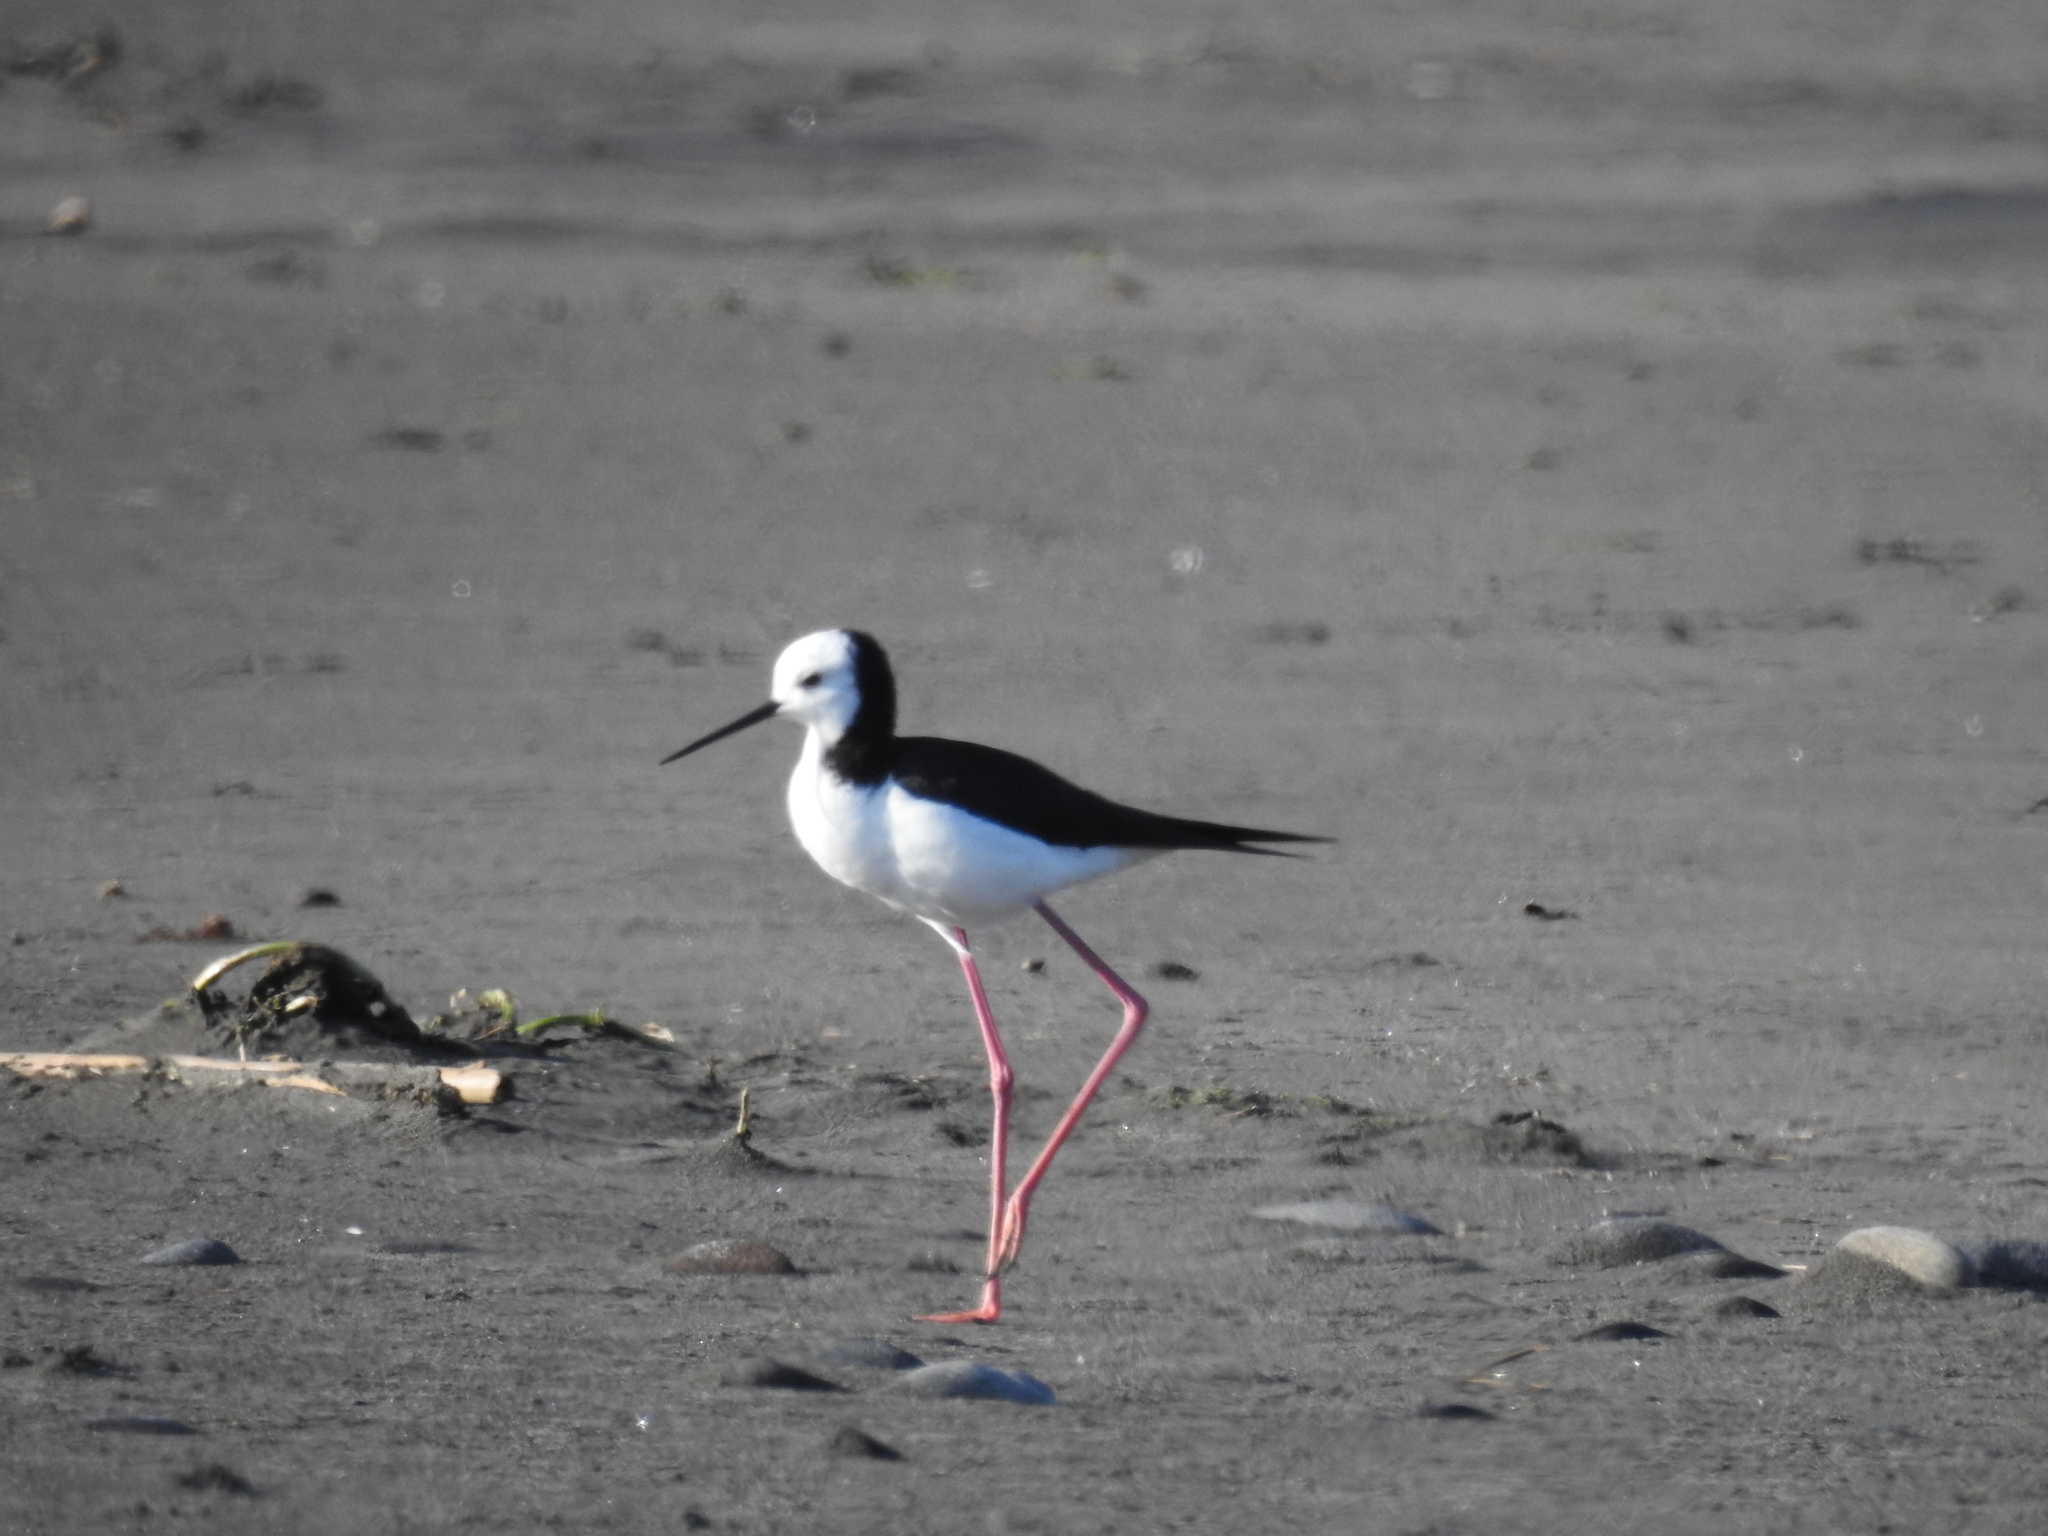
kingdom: Animalia
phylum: Chordata
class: Aves
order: Charadriiformes
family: Recurvirostridae
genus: Himantopus
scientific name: Himantopus leucocephalus
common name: White-headed stilt
